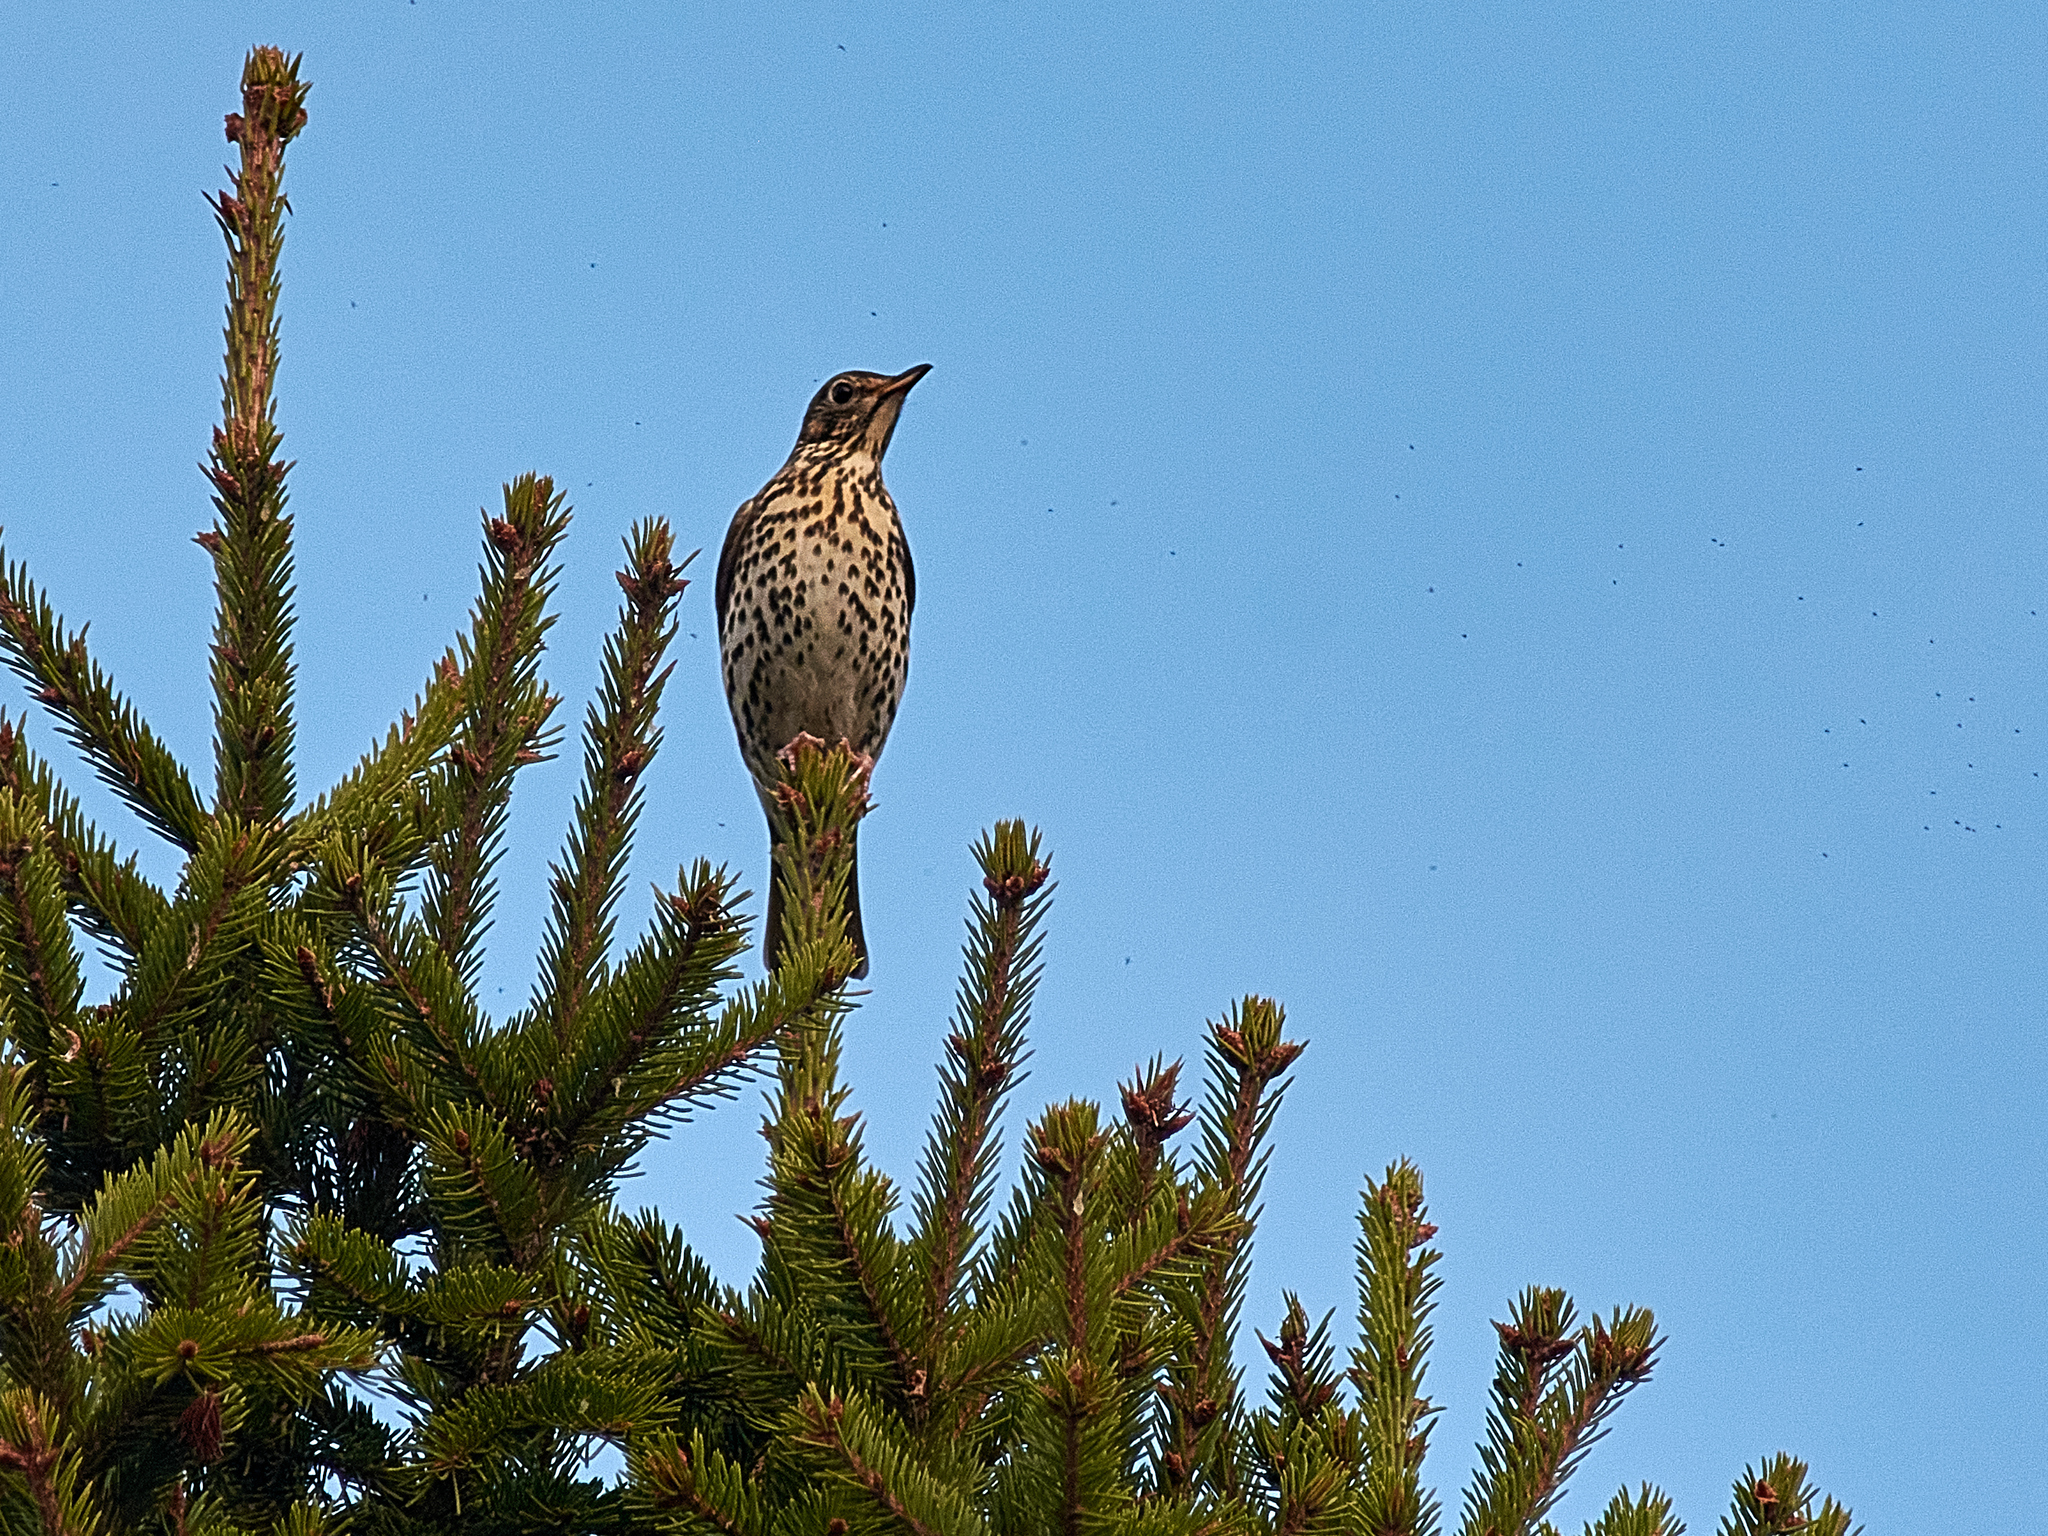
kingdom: Animalia
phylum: Chordata
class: Aves
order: Passeriformes
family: Turdidae
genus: Turdus
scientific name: Turdus philomelos
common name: Song thrush
